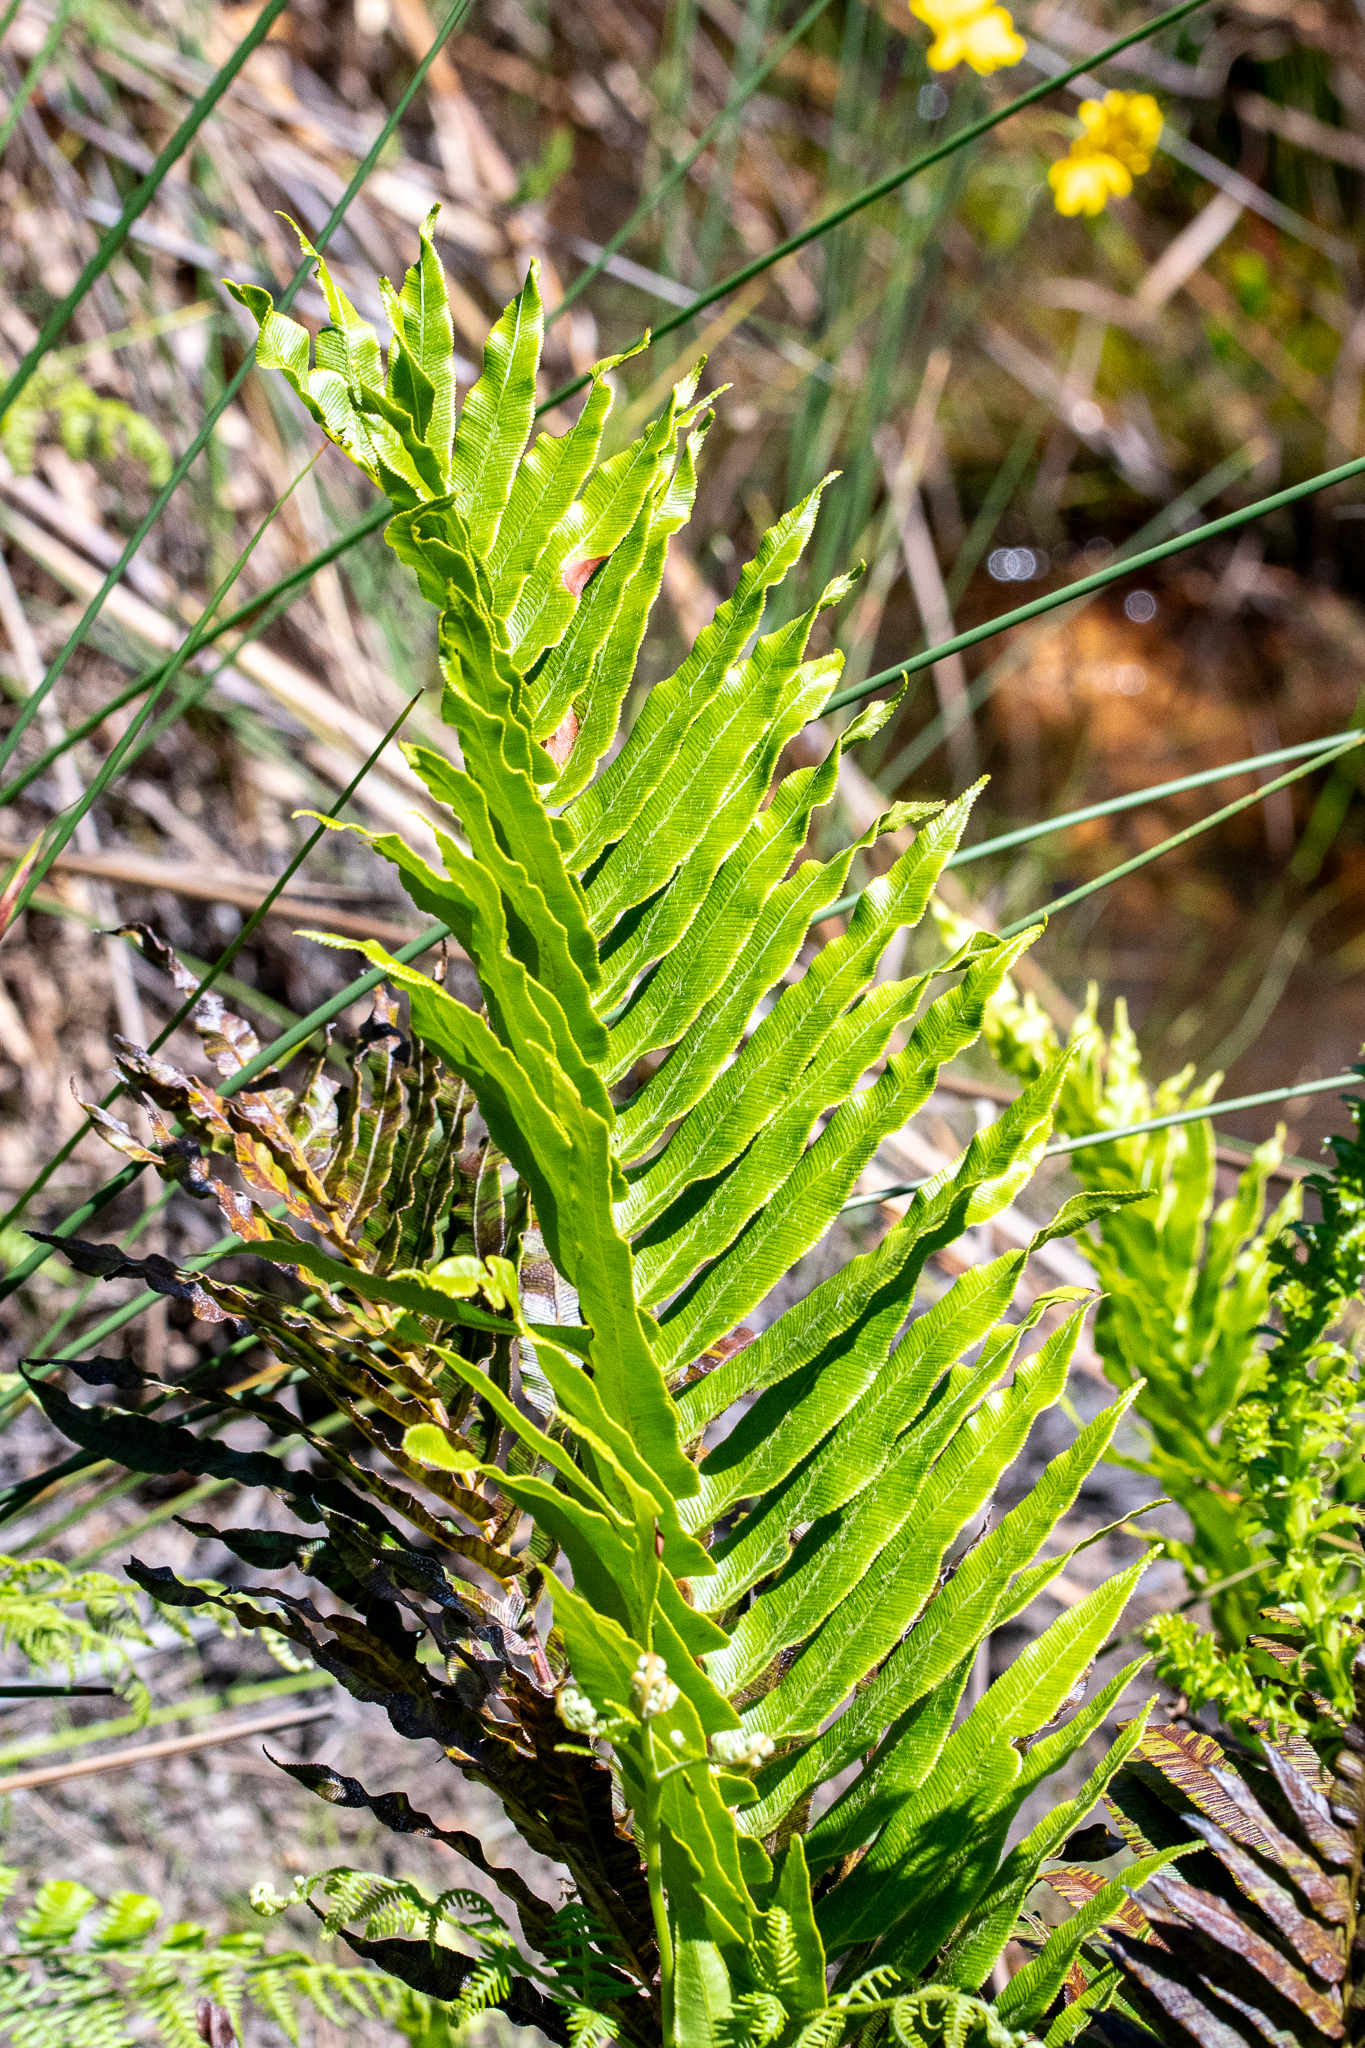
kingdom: Plantae
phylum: Tracheophyta
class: Polypodiopsida
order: Polypodiales
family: Blechnaceae
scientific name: Blechnaceae
